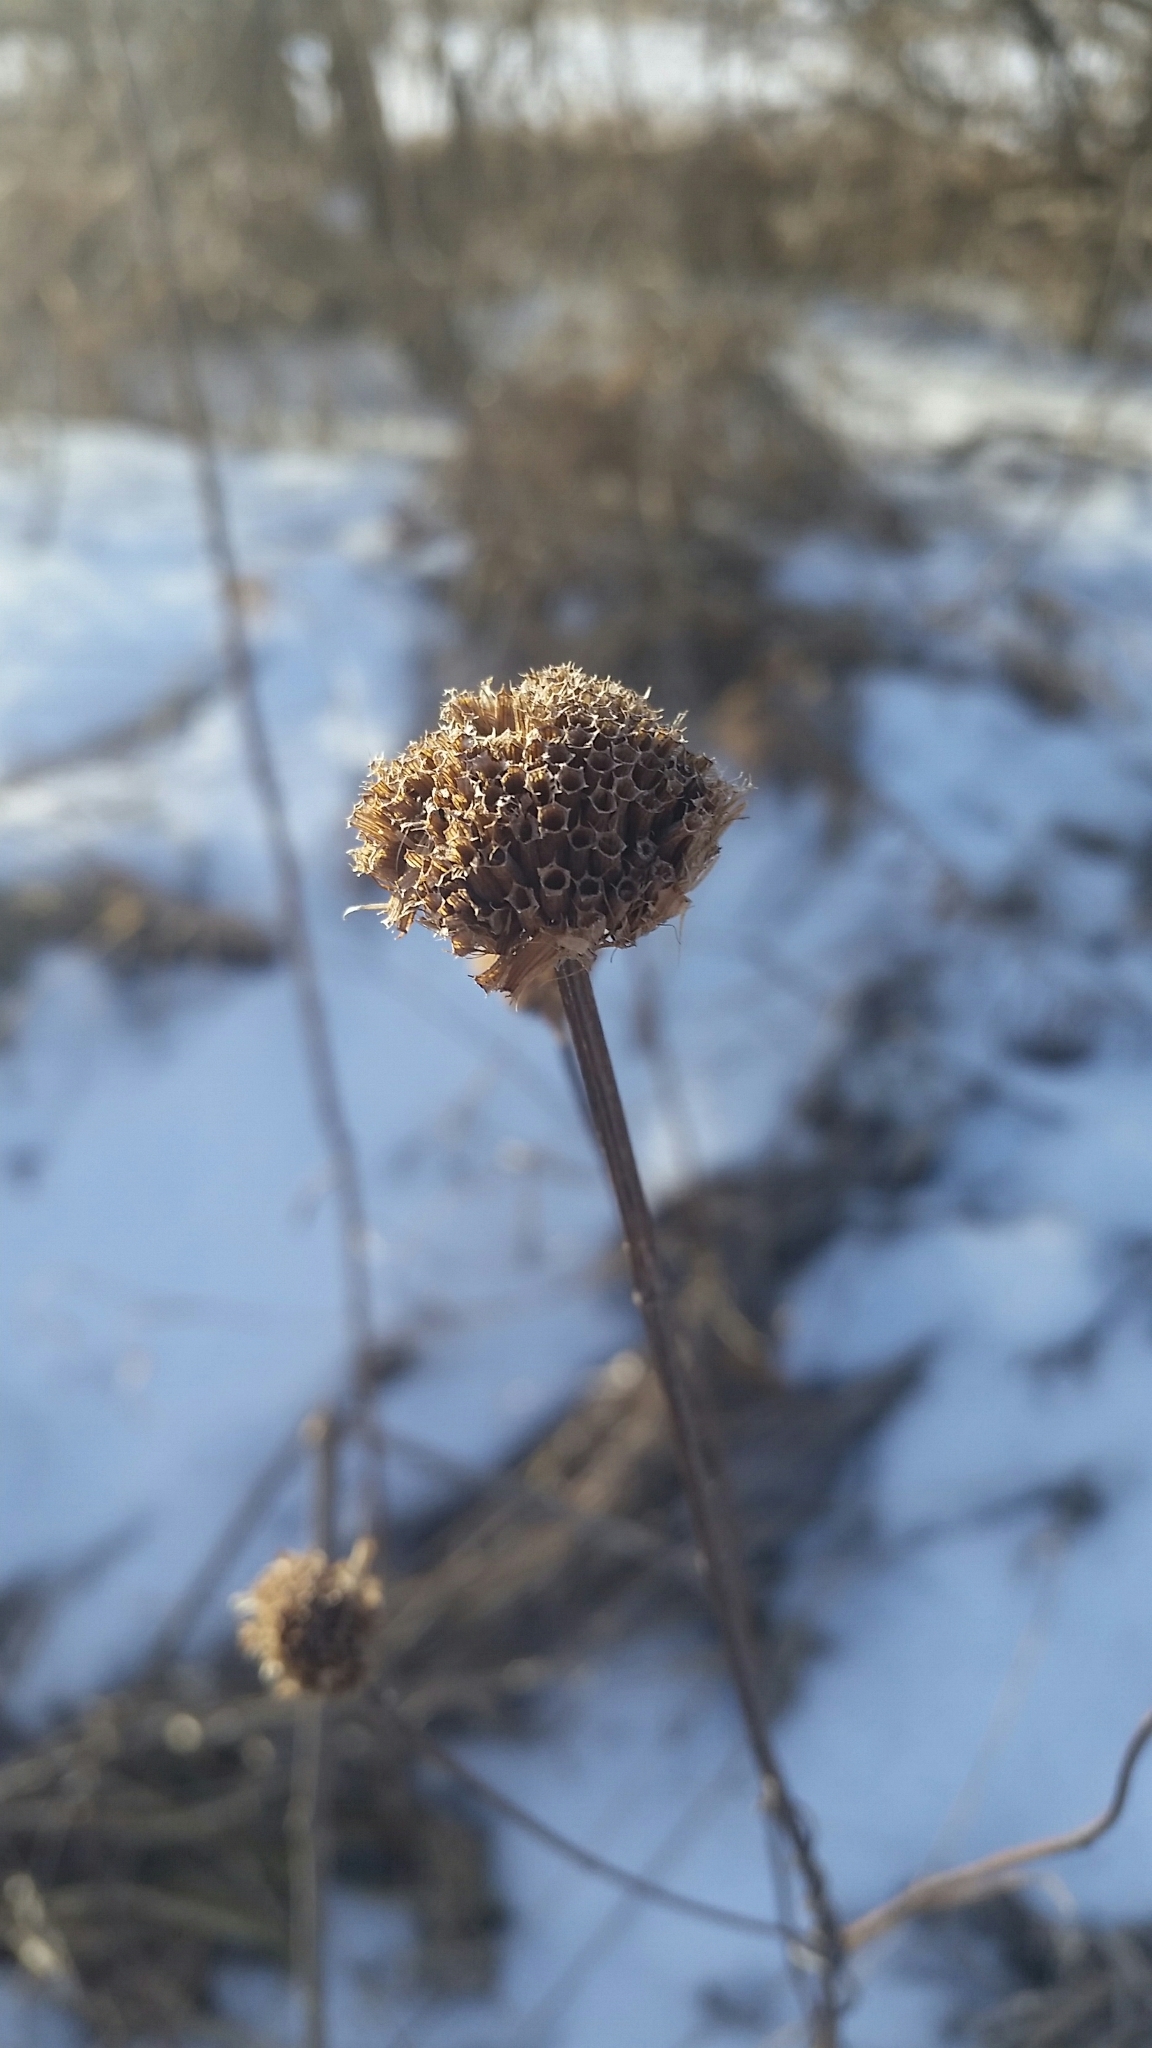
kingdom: Plantae
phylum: Tracheophyta
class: Magnoliopsida
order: Lamiales
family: Lamiaceae
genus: Monarda
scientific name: Monarda fistulosa
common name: Purple beebalm
